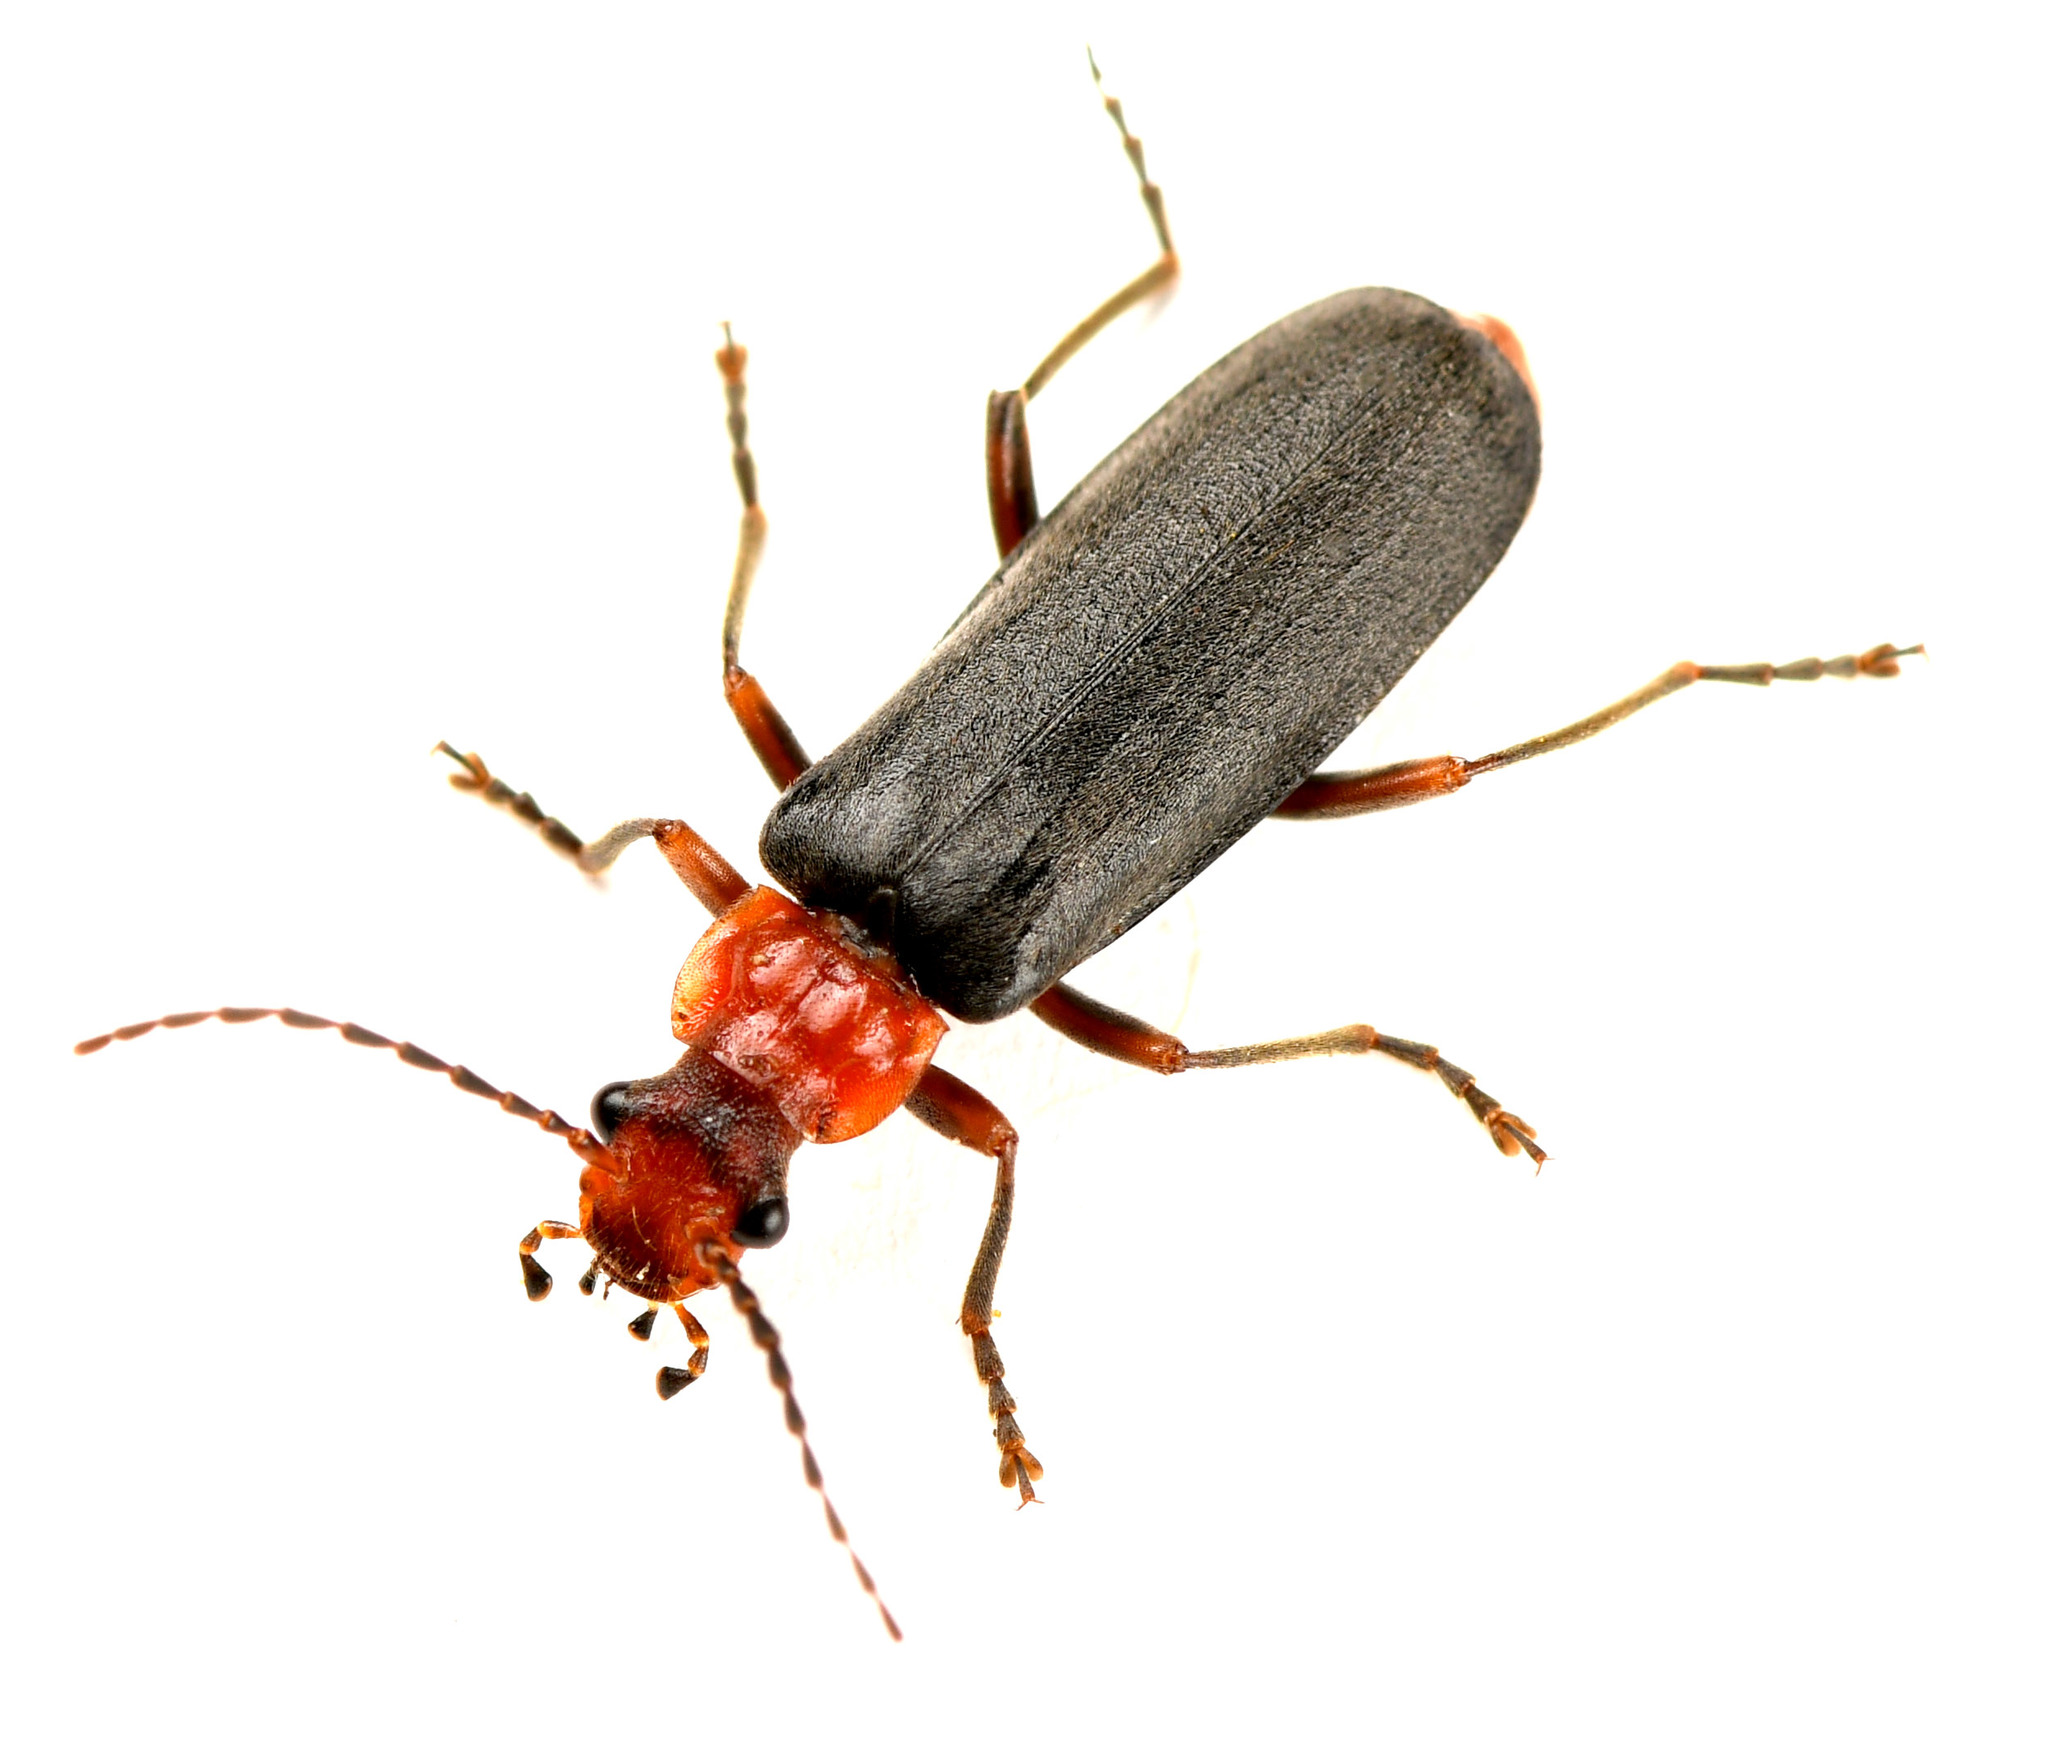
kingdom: Animalia
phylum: Arthropoda
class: Insecta
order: Coleoptera
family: Cantharidae
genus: Podabrus
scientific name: Podabrus pruinosus
